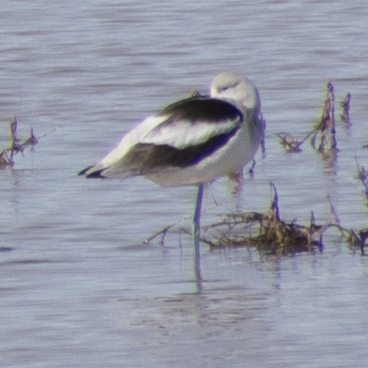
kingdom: Animalia
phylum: Chordata
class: Aves
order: Charadriiformes
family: Recurvirostridae
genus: Recurvirostra
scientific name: Recurvirostra americana
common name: American avocet
